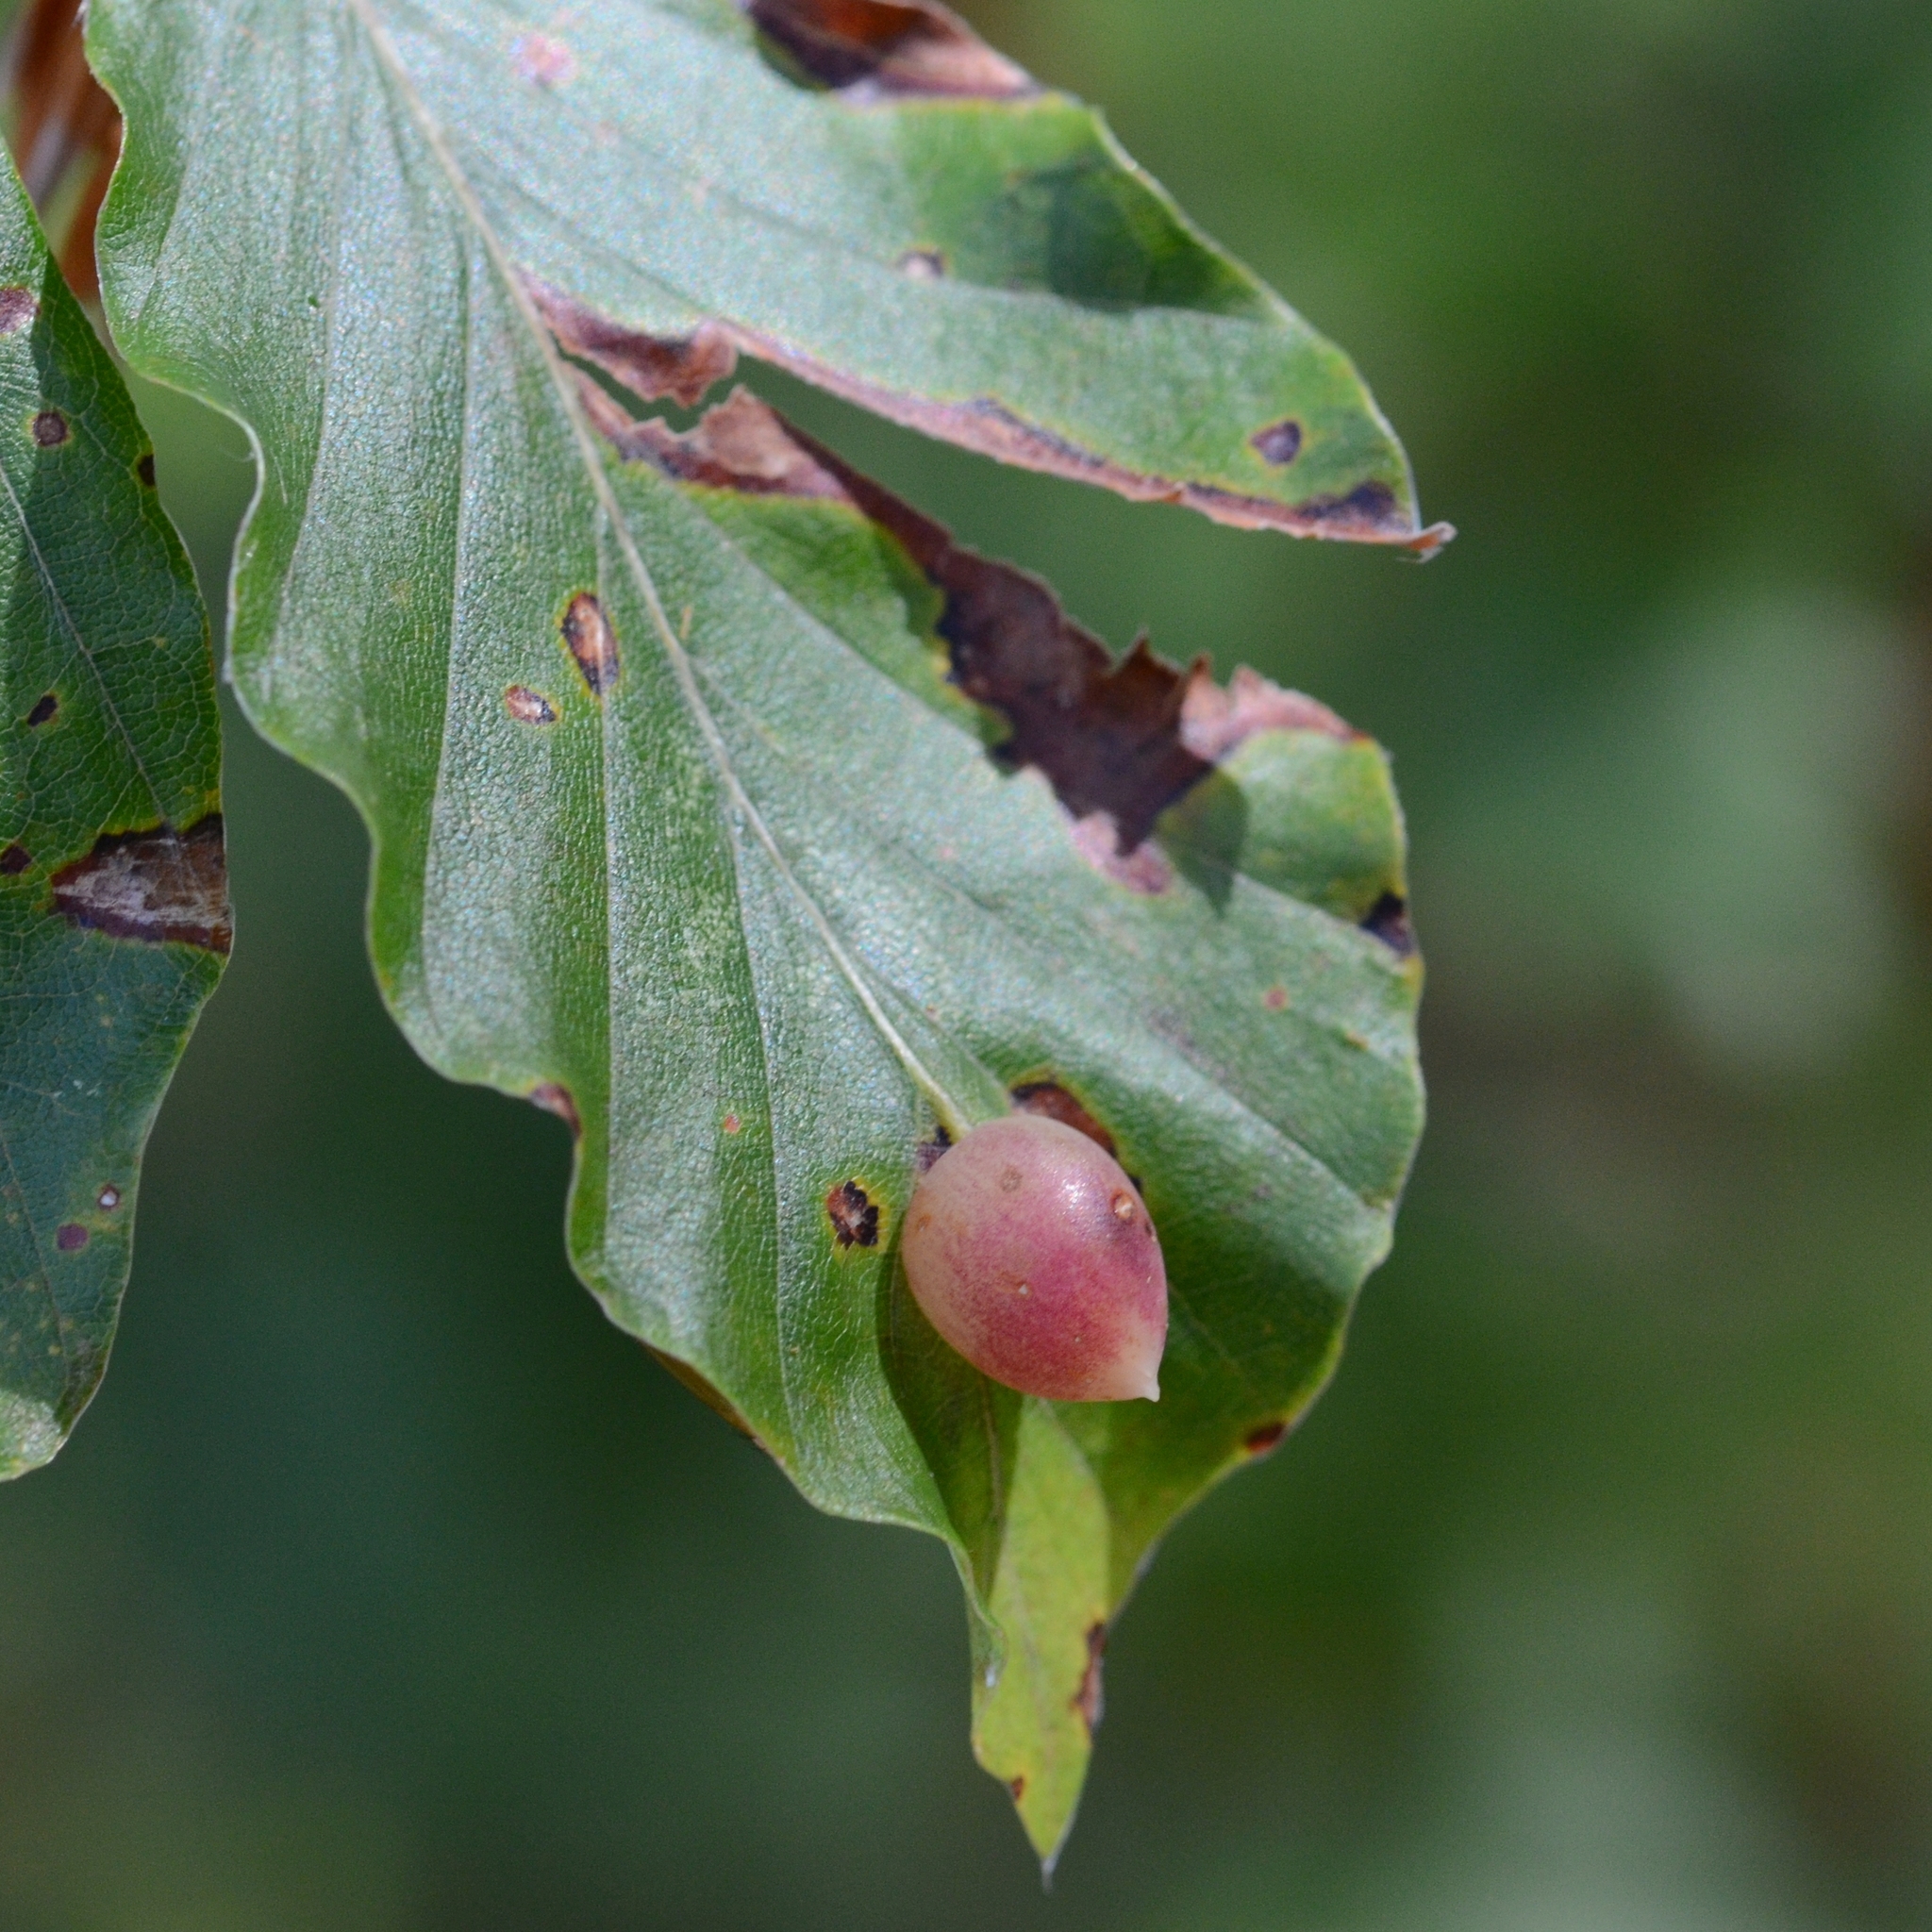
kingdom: Animalia
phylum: Arthropoda
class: Insecta
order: Diptera
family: Cecidomyiidae
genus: Mikiola
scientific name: Mikiola fagi
